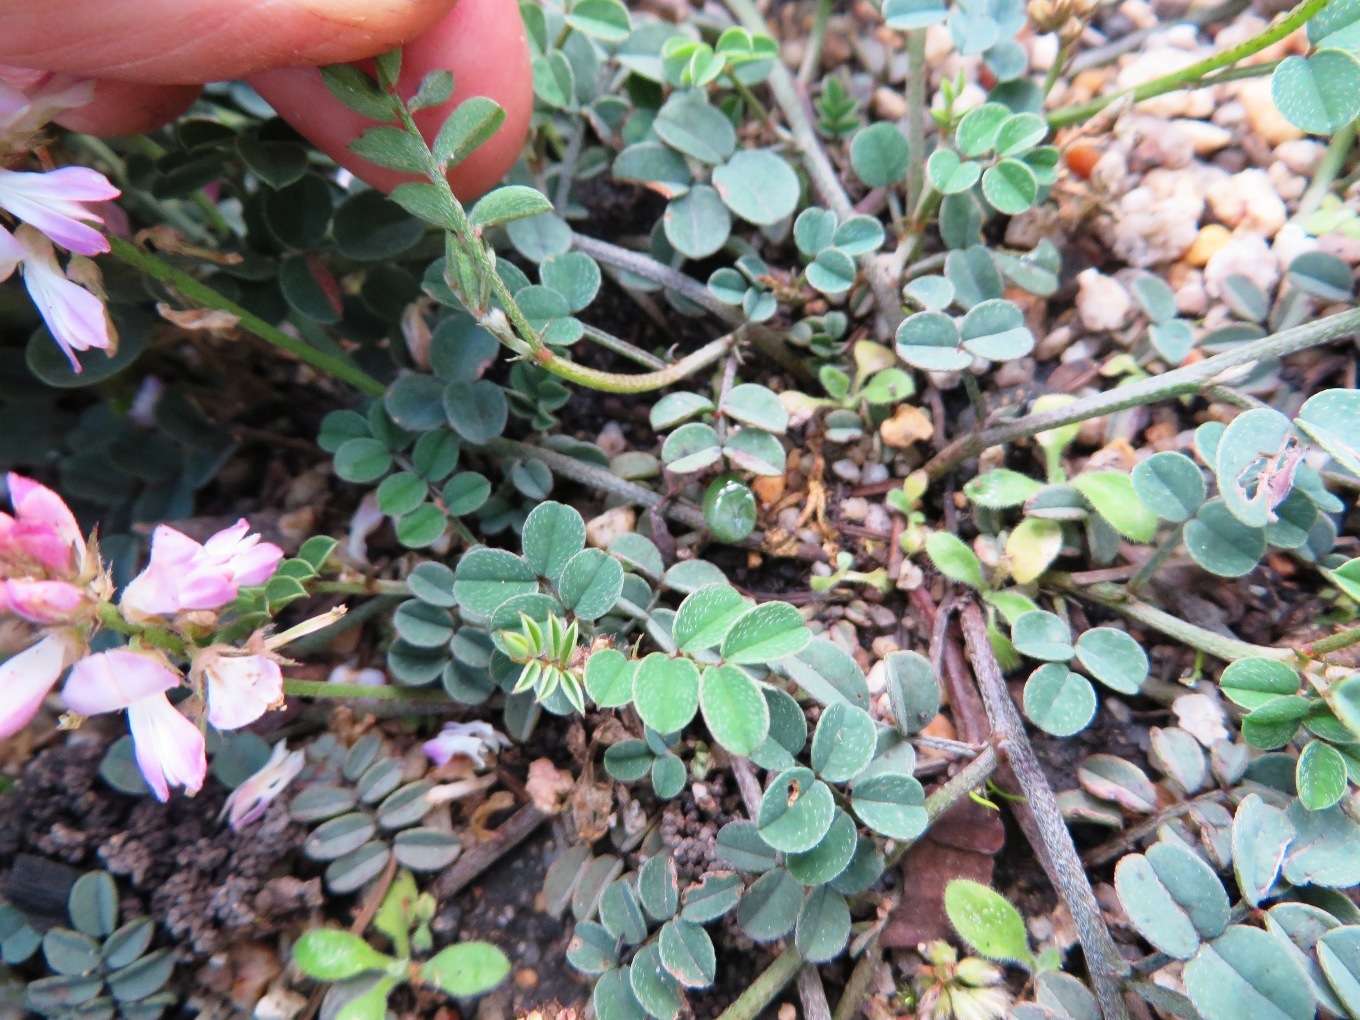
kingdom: Plantae
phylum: Tracheophyta
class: Magnoliopsida
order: Fabales
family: Fabaceae
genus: Indigofera
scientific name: Indigofera
